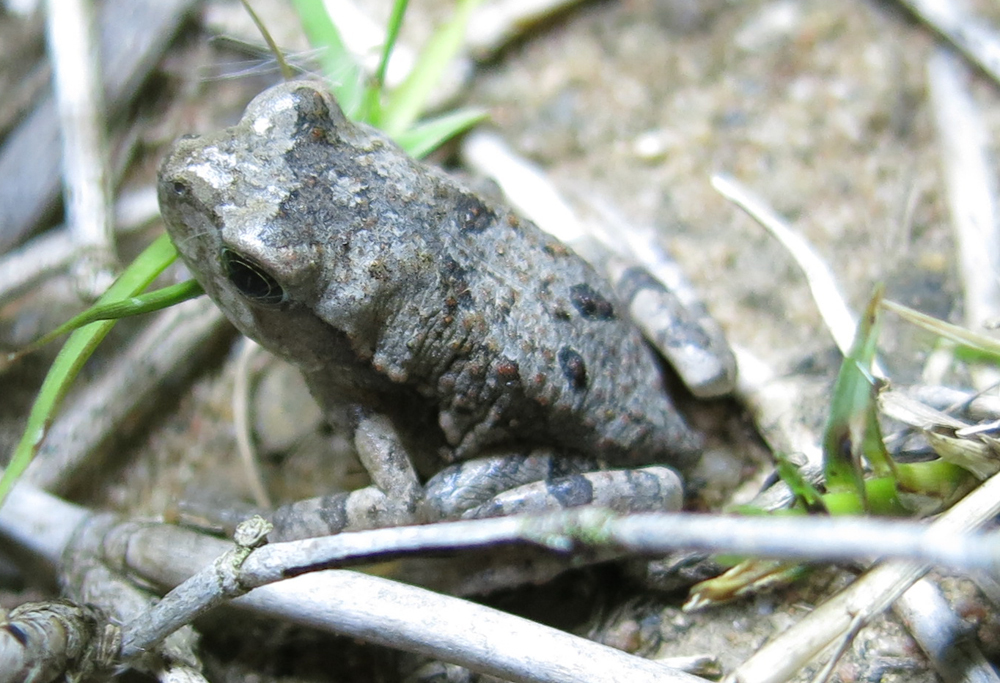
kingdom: Animalia
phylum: Chordata
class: Amphibia
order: Anura
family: Bufonidae
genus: Schismaderma
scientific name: Schismaderma carens
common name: African split-skin toad
